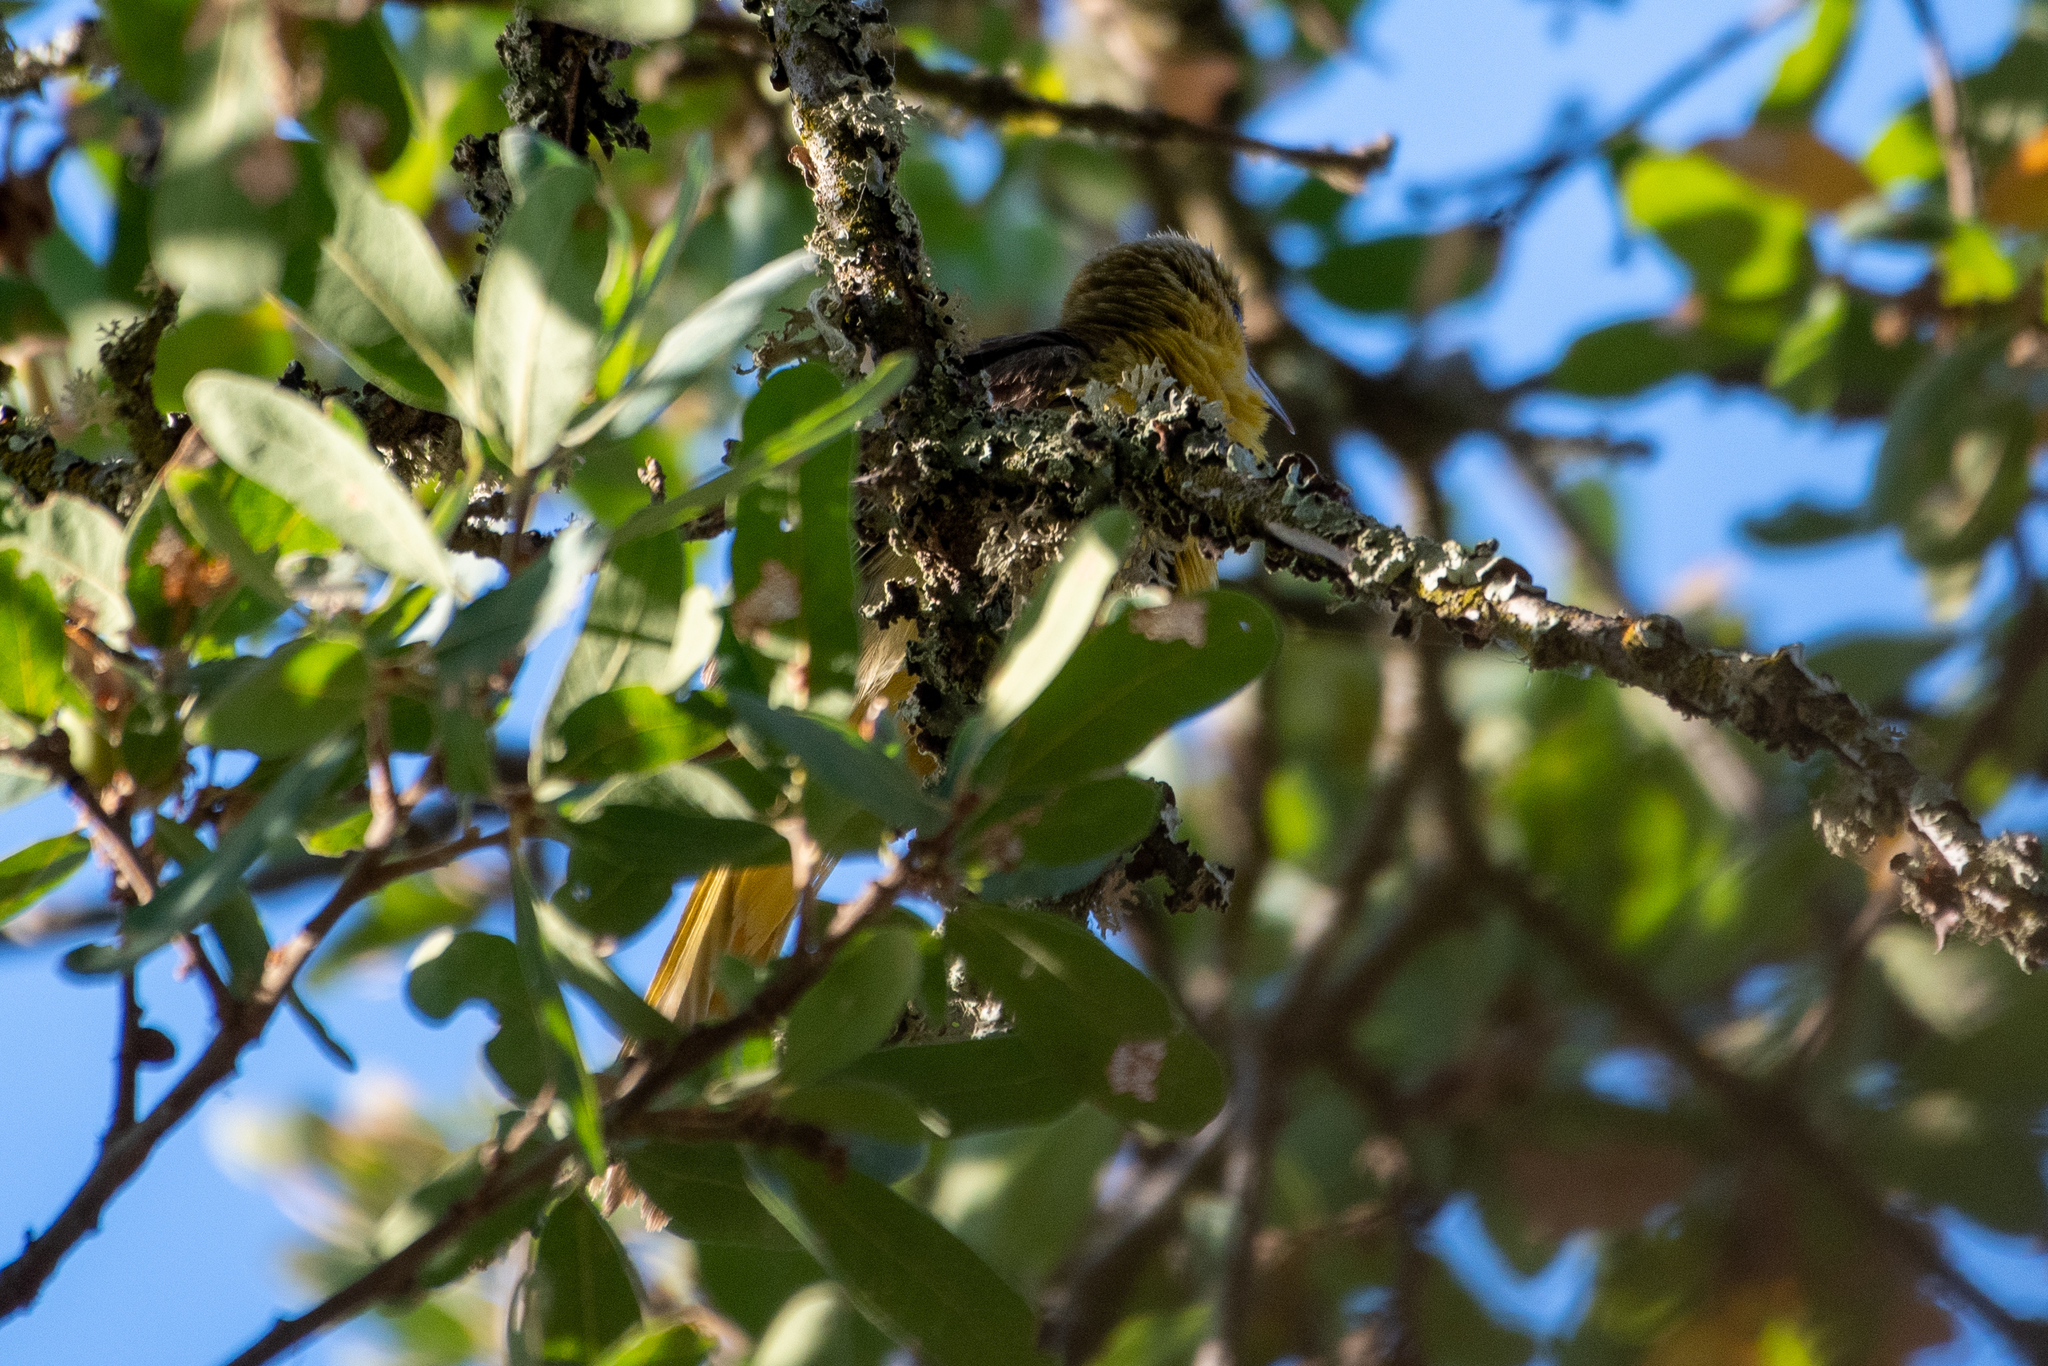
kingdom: Animalia
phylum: Chordata
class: Aves
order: Passeriformes
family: Icteridae
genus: Icterus
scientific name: Icterus cucullatus
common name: Hooded oriole
